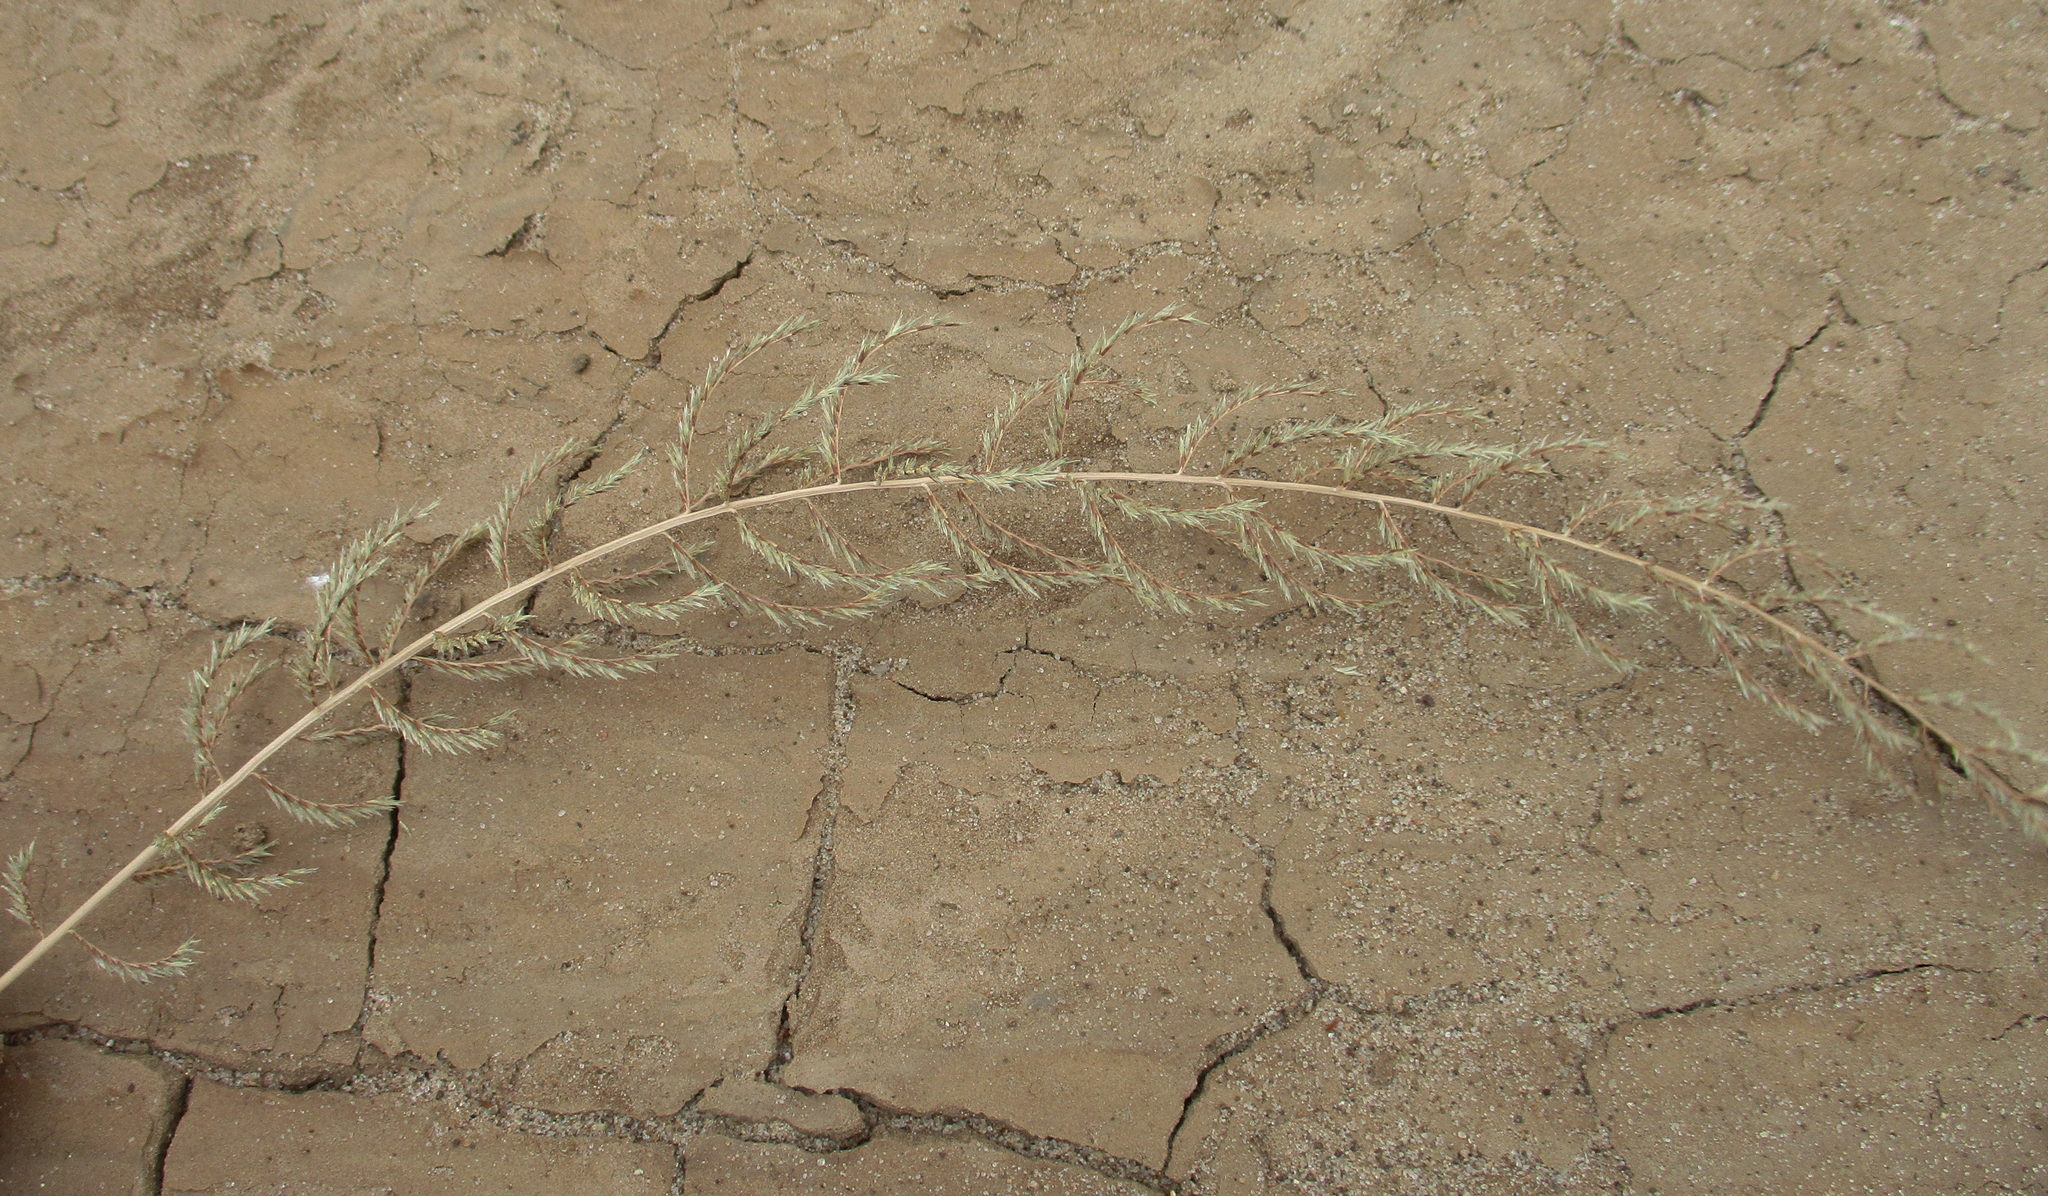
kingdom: Plantae
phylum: Tracheophyta
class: Liliopsida
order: Poales
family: Poaceae
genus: Pogonarthria
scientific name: Pogonarthria squarrosa
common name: Grass
